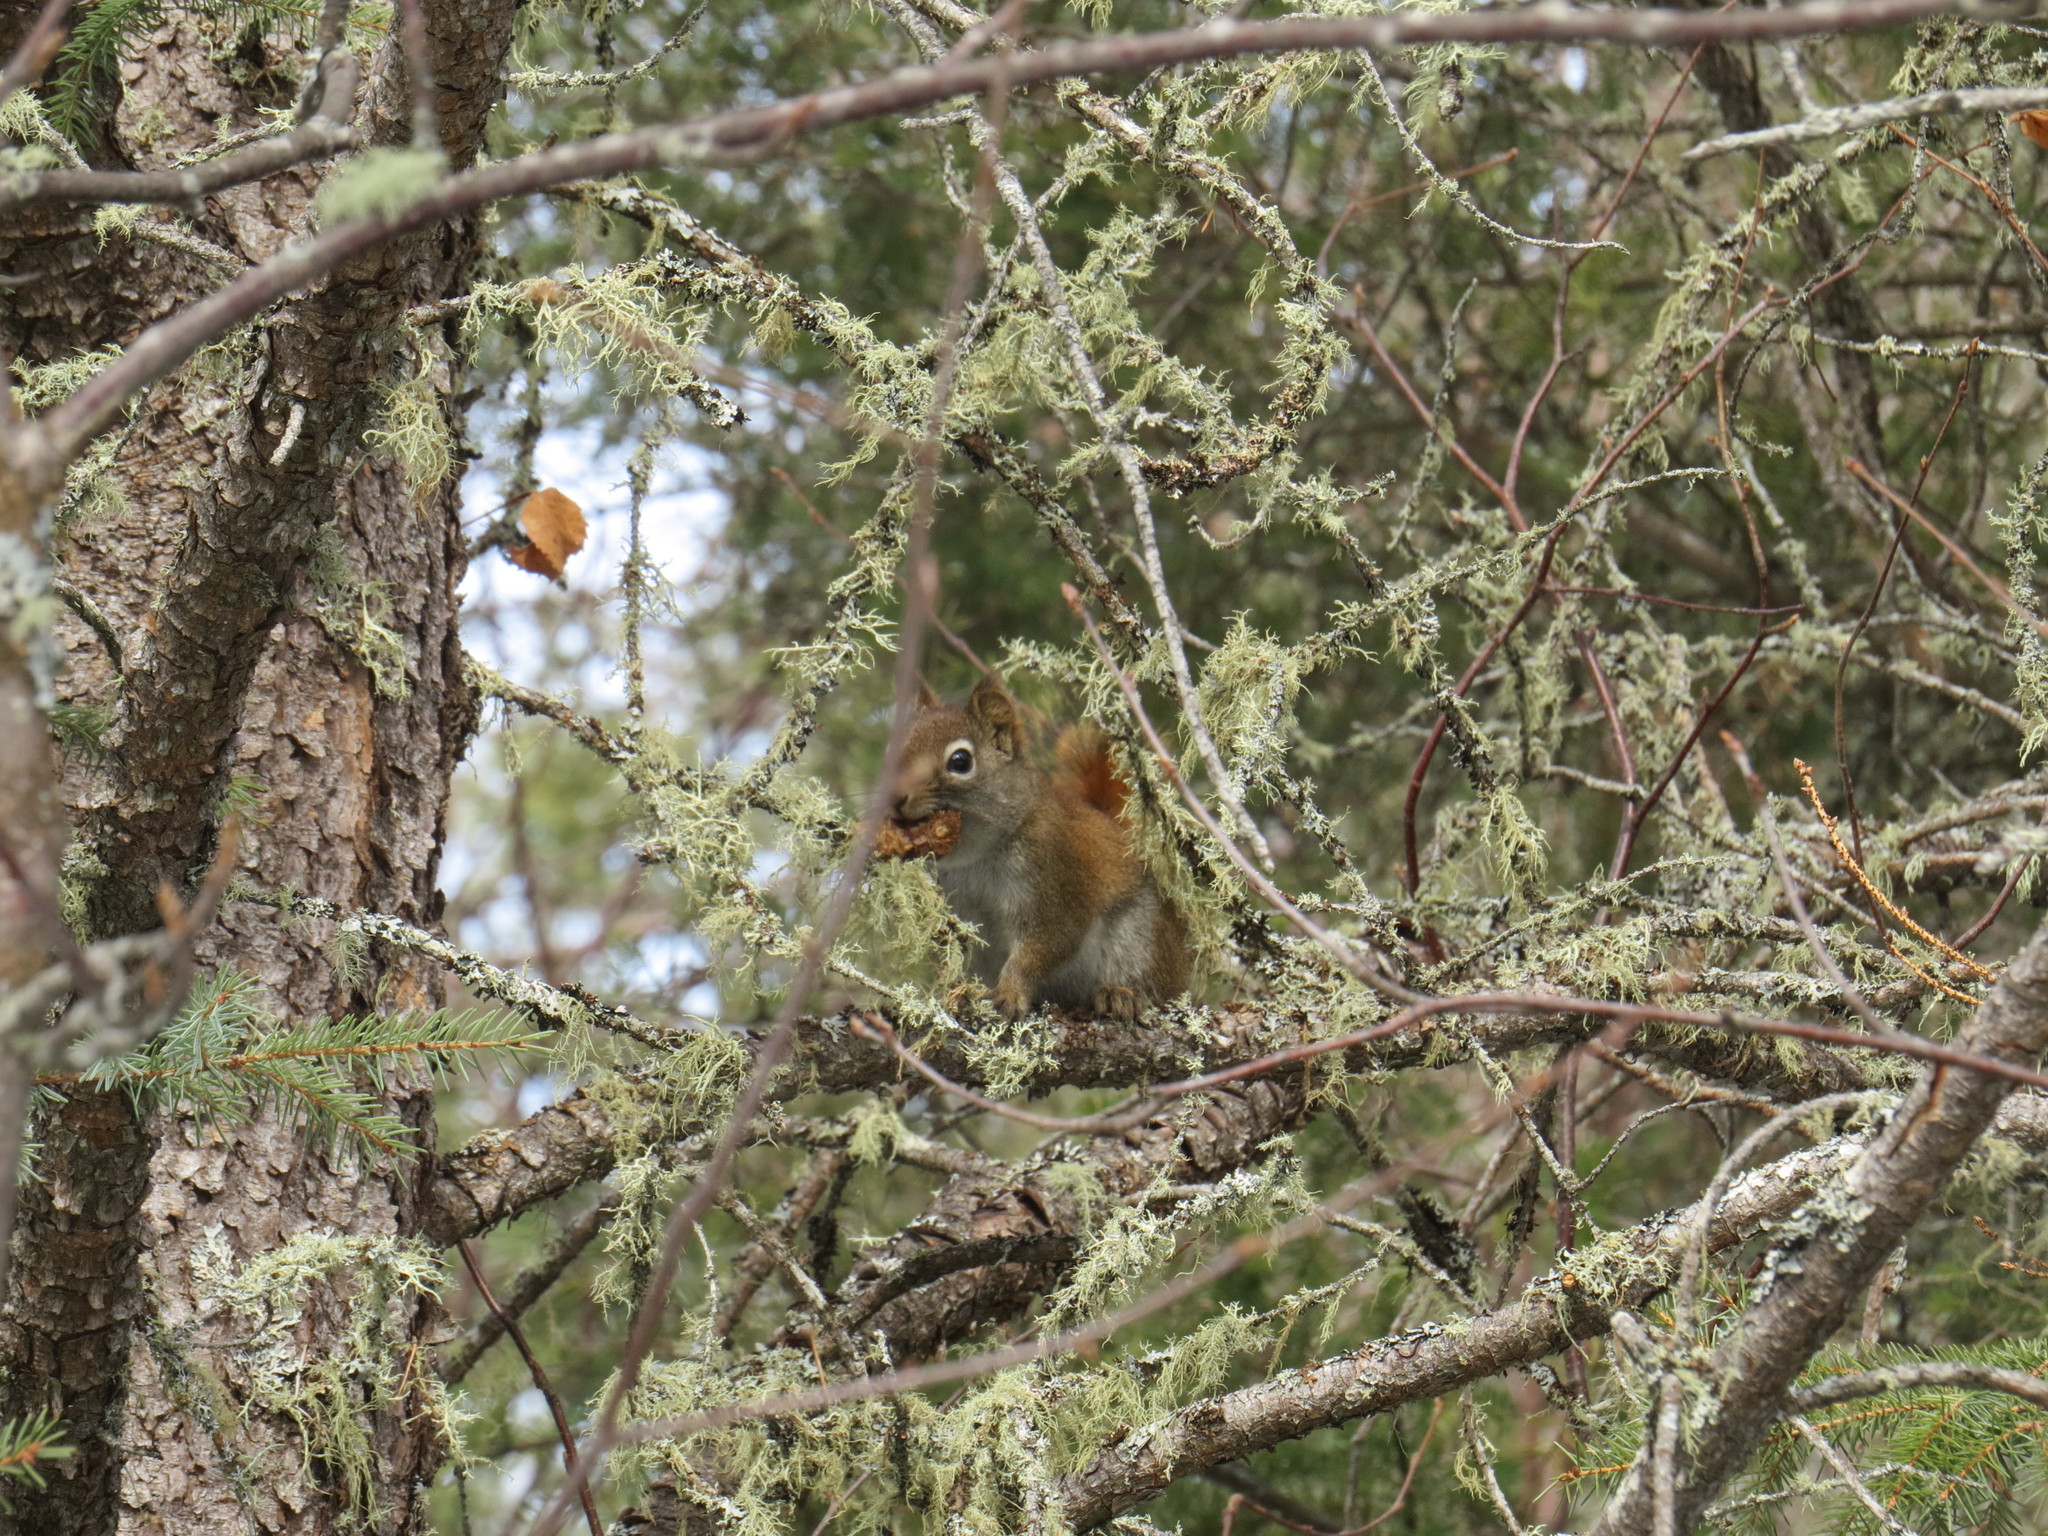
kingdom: Animalia
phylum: Chordata
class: Mammalia
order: Rodentia
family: Sciuridae
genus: Tamiasciurus
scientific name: Tamiasciurus hudsonicus
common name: Red squirrel
